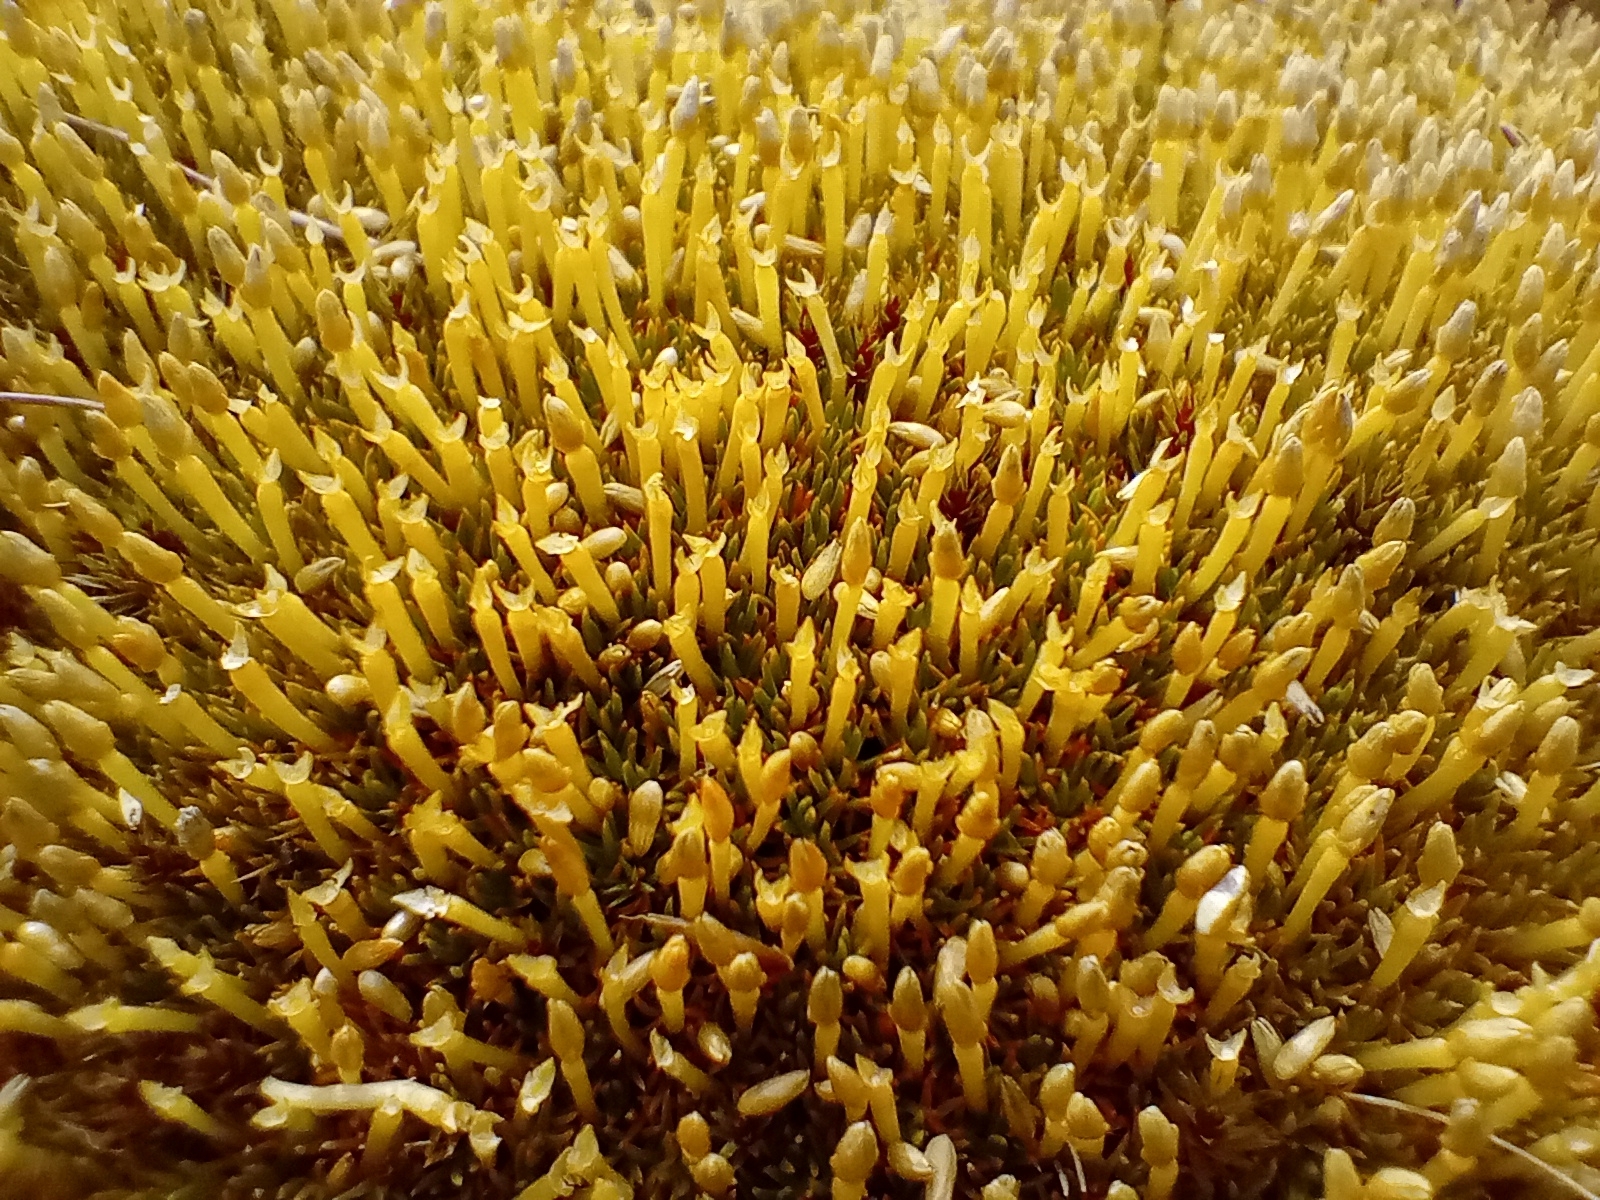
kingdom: Plantae
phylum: Tracheophyta
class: Magnoliopsida
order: Caryophyllales
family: Caryophyllaceae
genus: Scleranthus
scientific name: Scleranthus uniflorus
